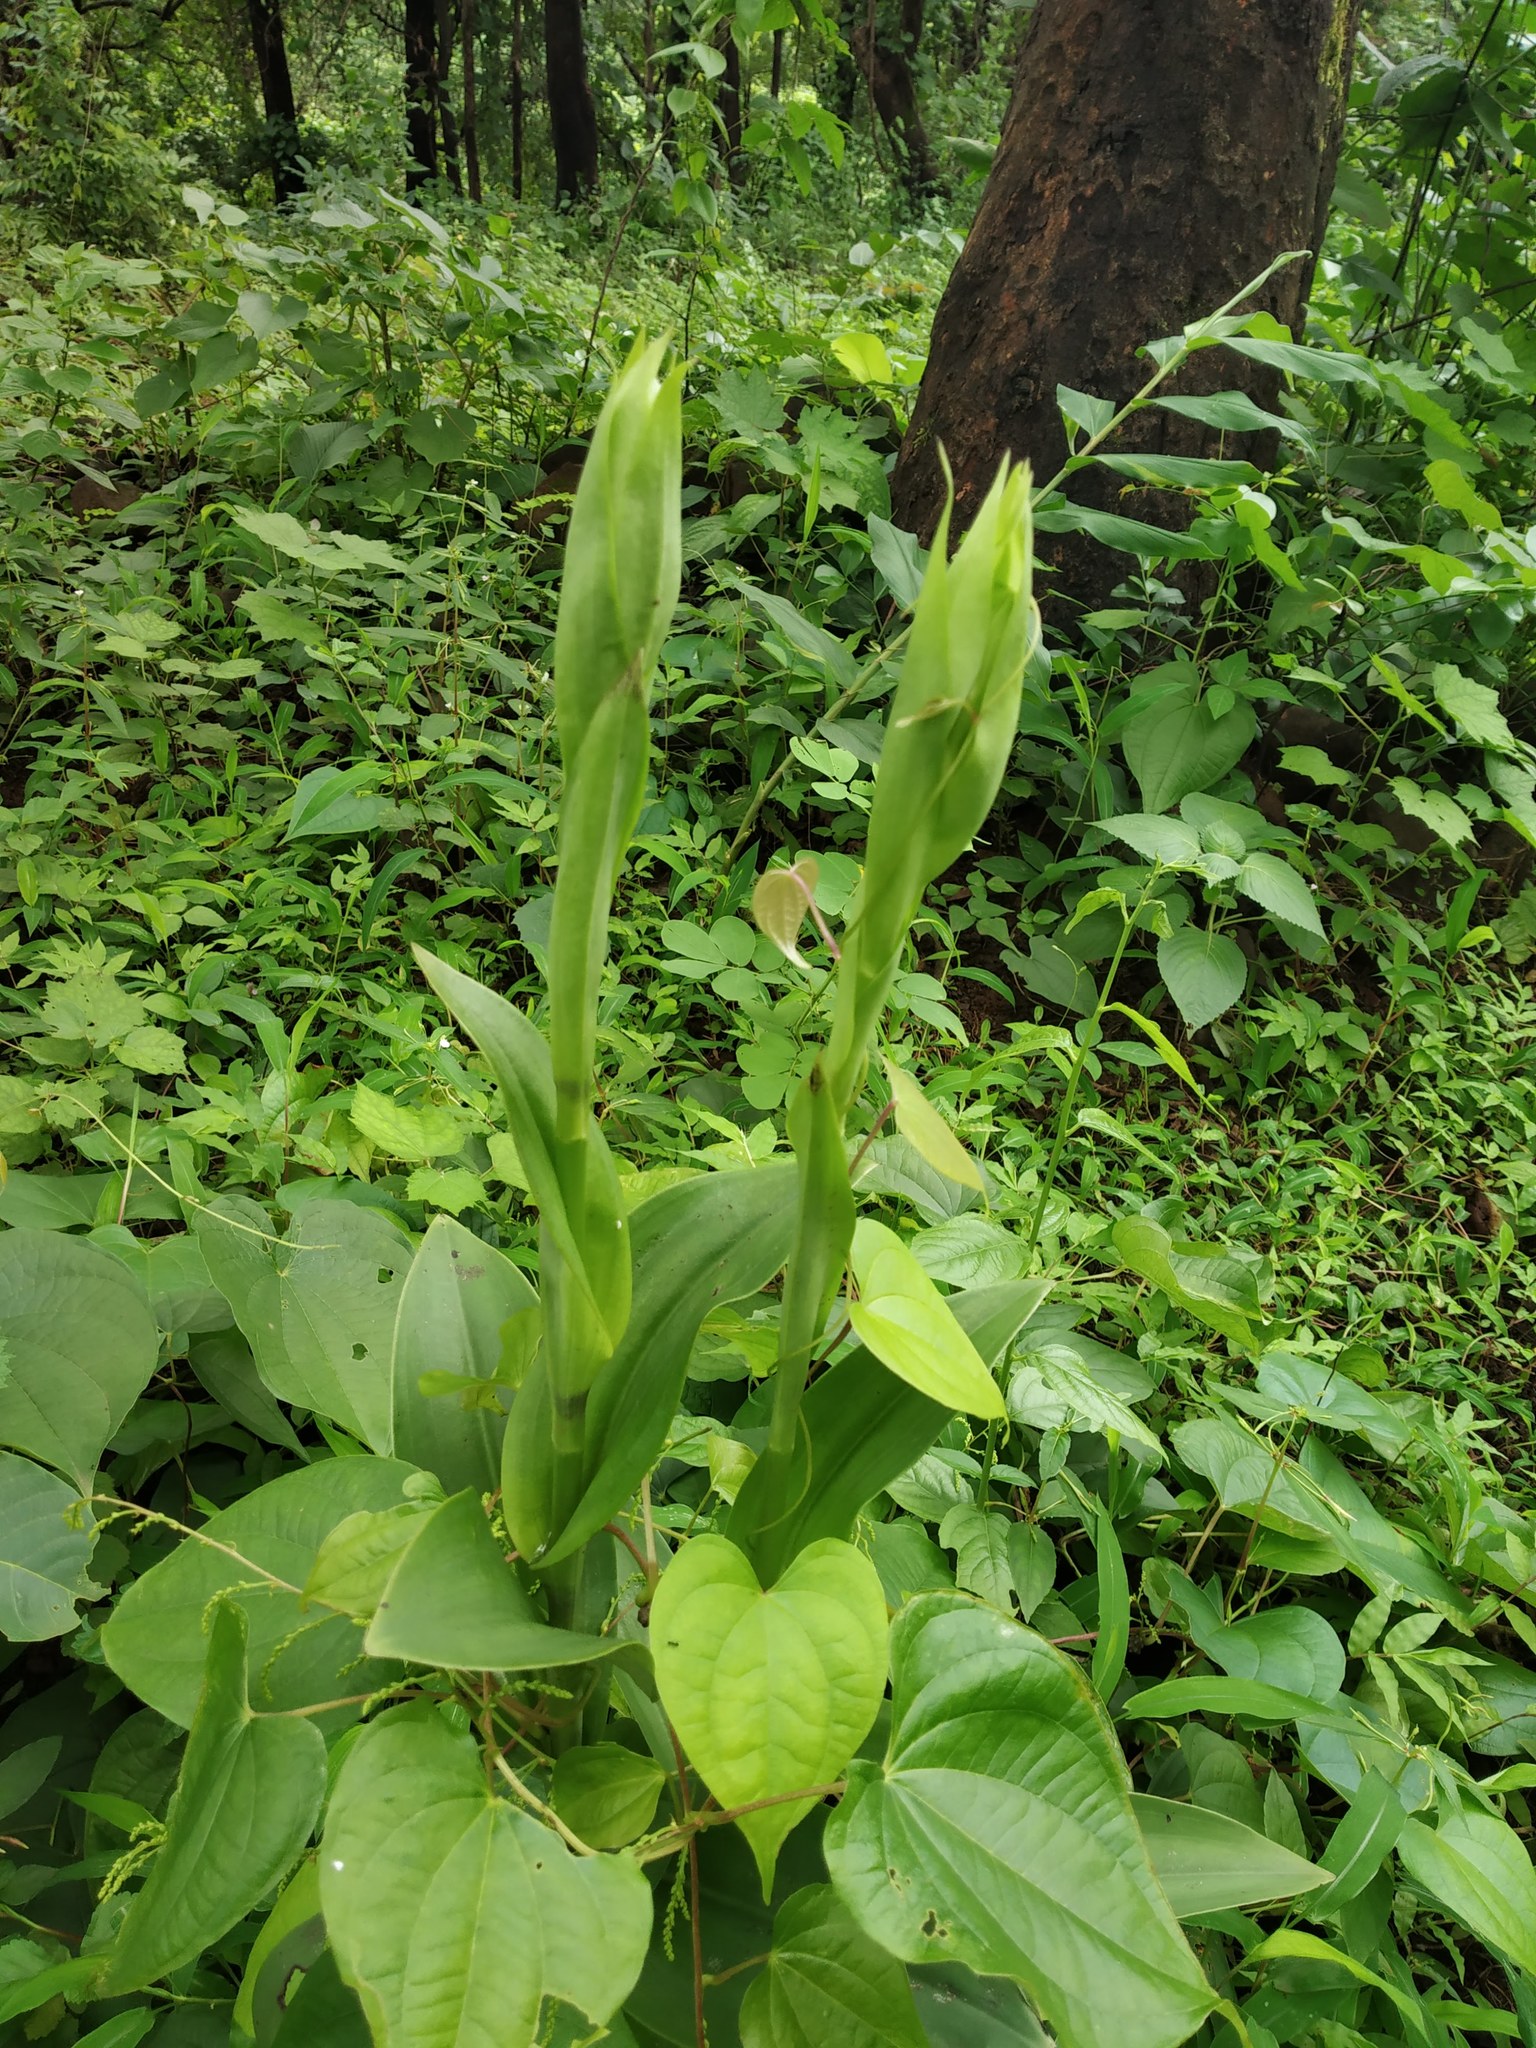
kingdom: Plantae
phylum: Tracheophyta
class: Liliopsida
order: Asparagales
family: Orchidaceae
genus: Pecteilis
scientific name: Pecteilis gigantea
